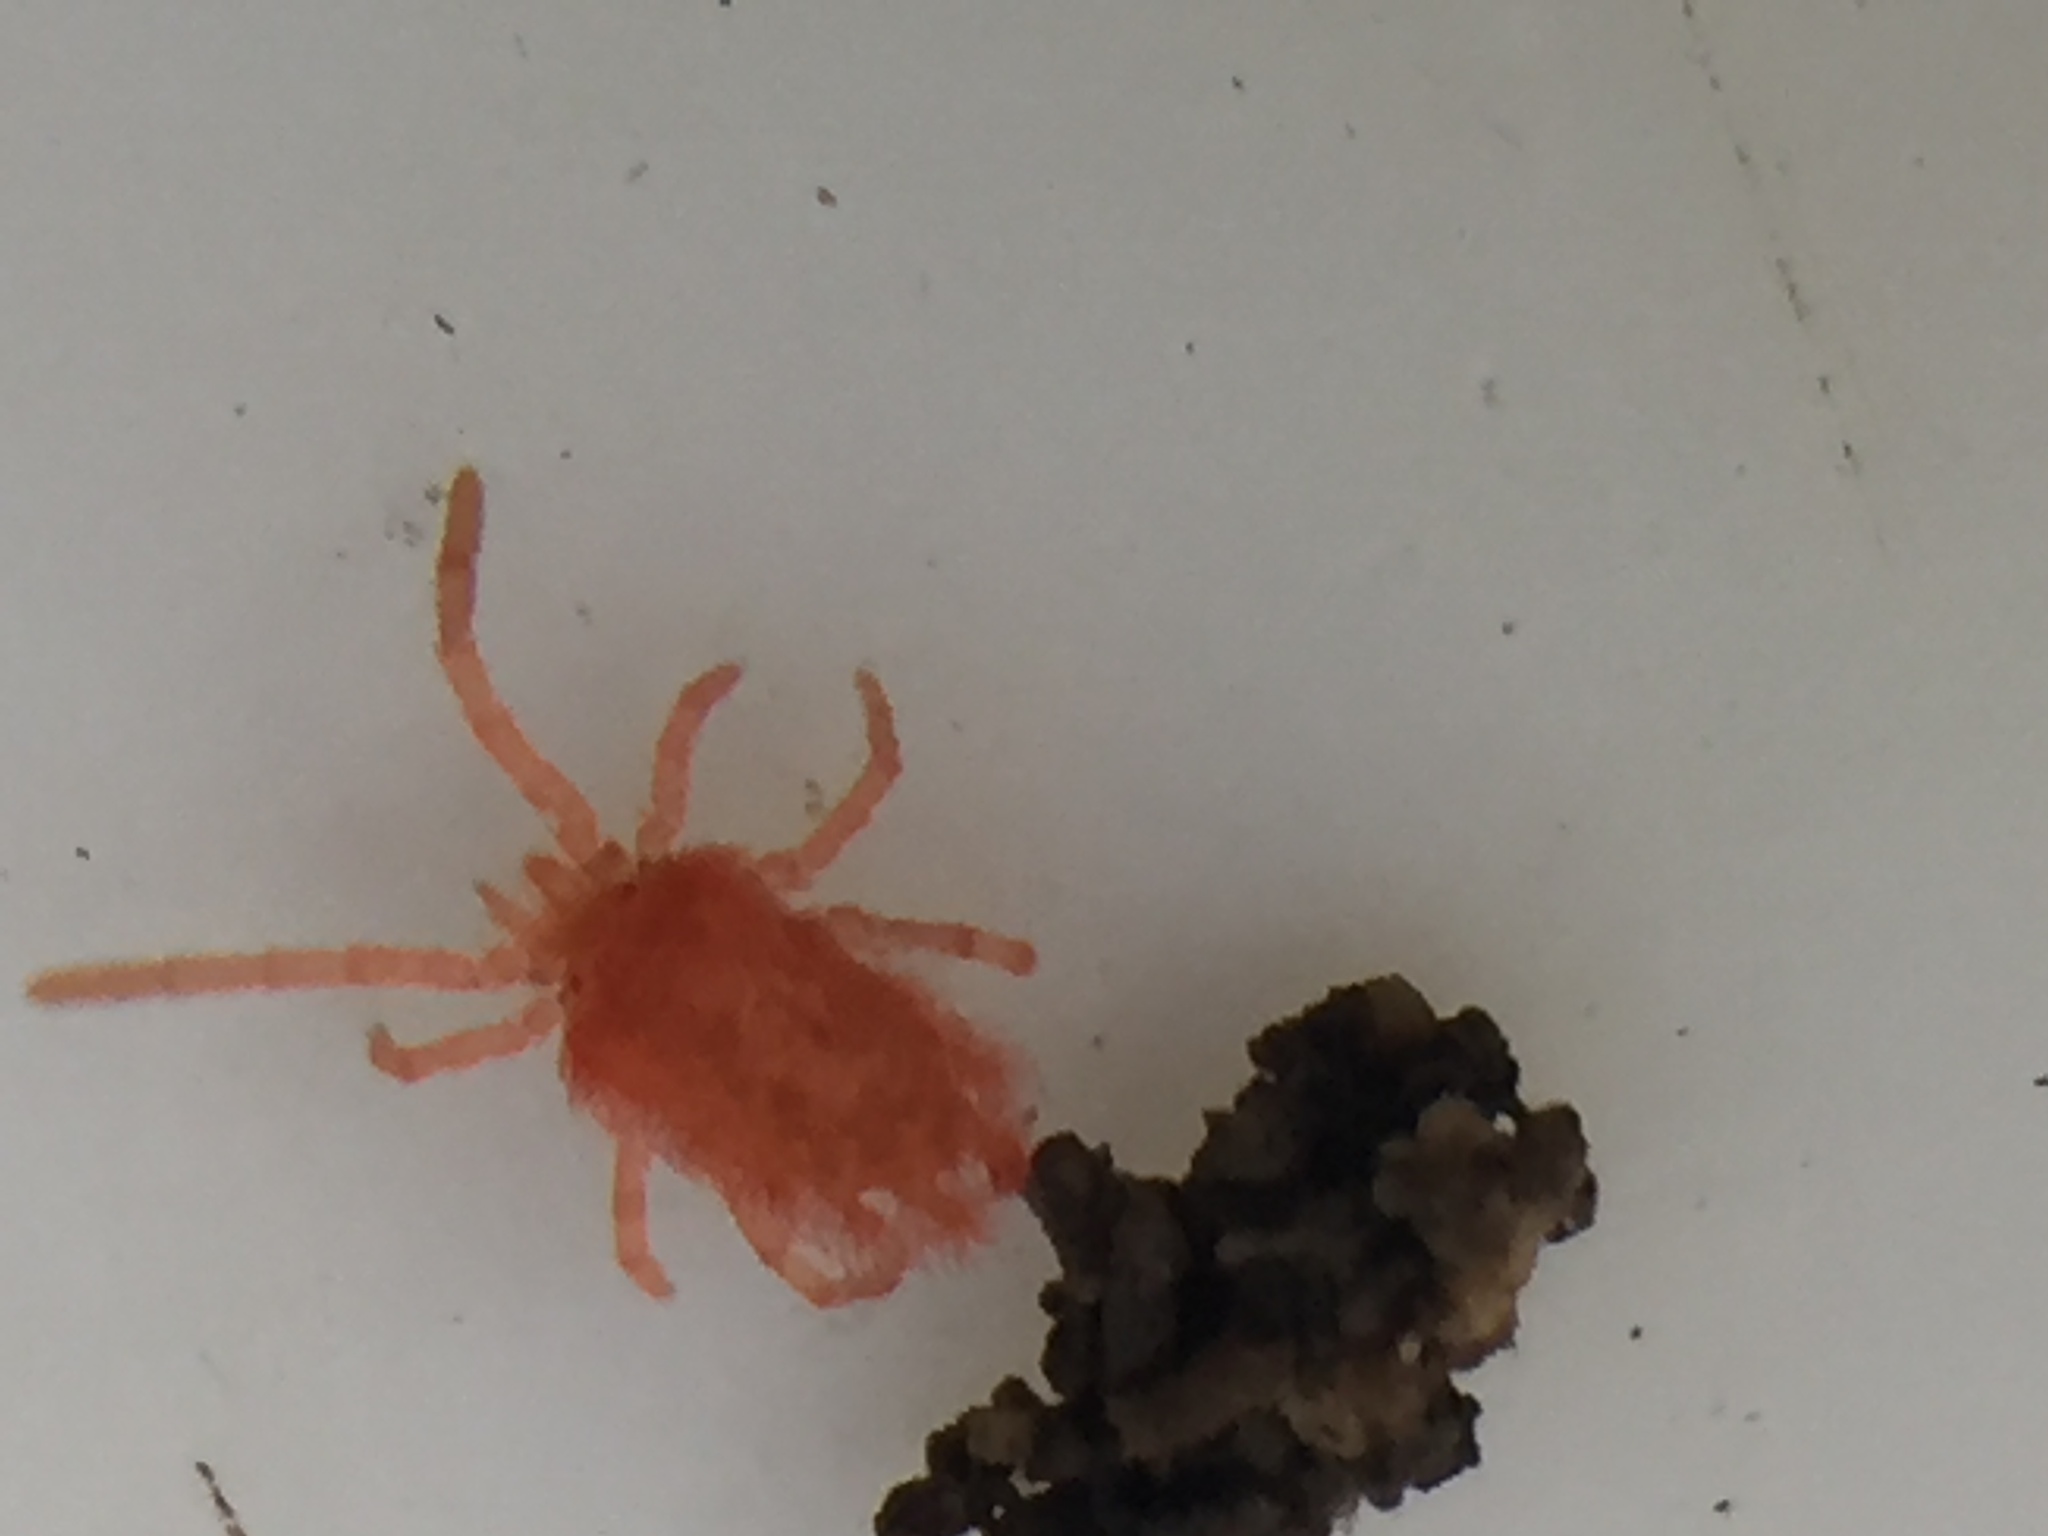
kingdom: Animalia
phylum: Arthropoda
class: Arachnida
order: Trombidiformes
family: Chyzeriidae
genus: Chyzeria
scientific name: Chyzeria
